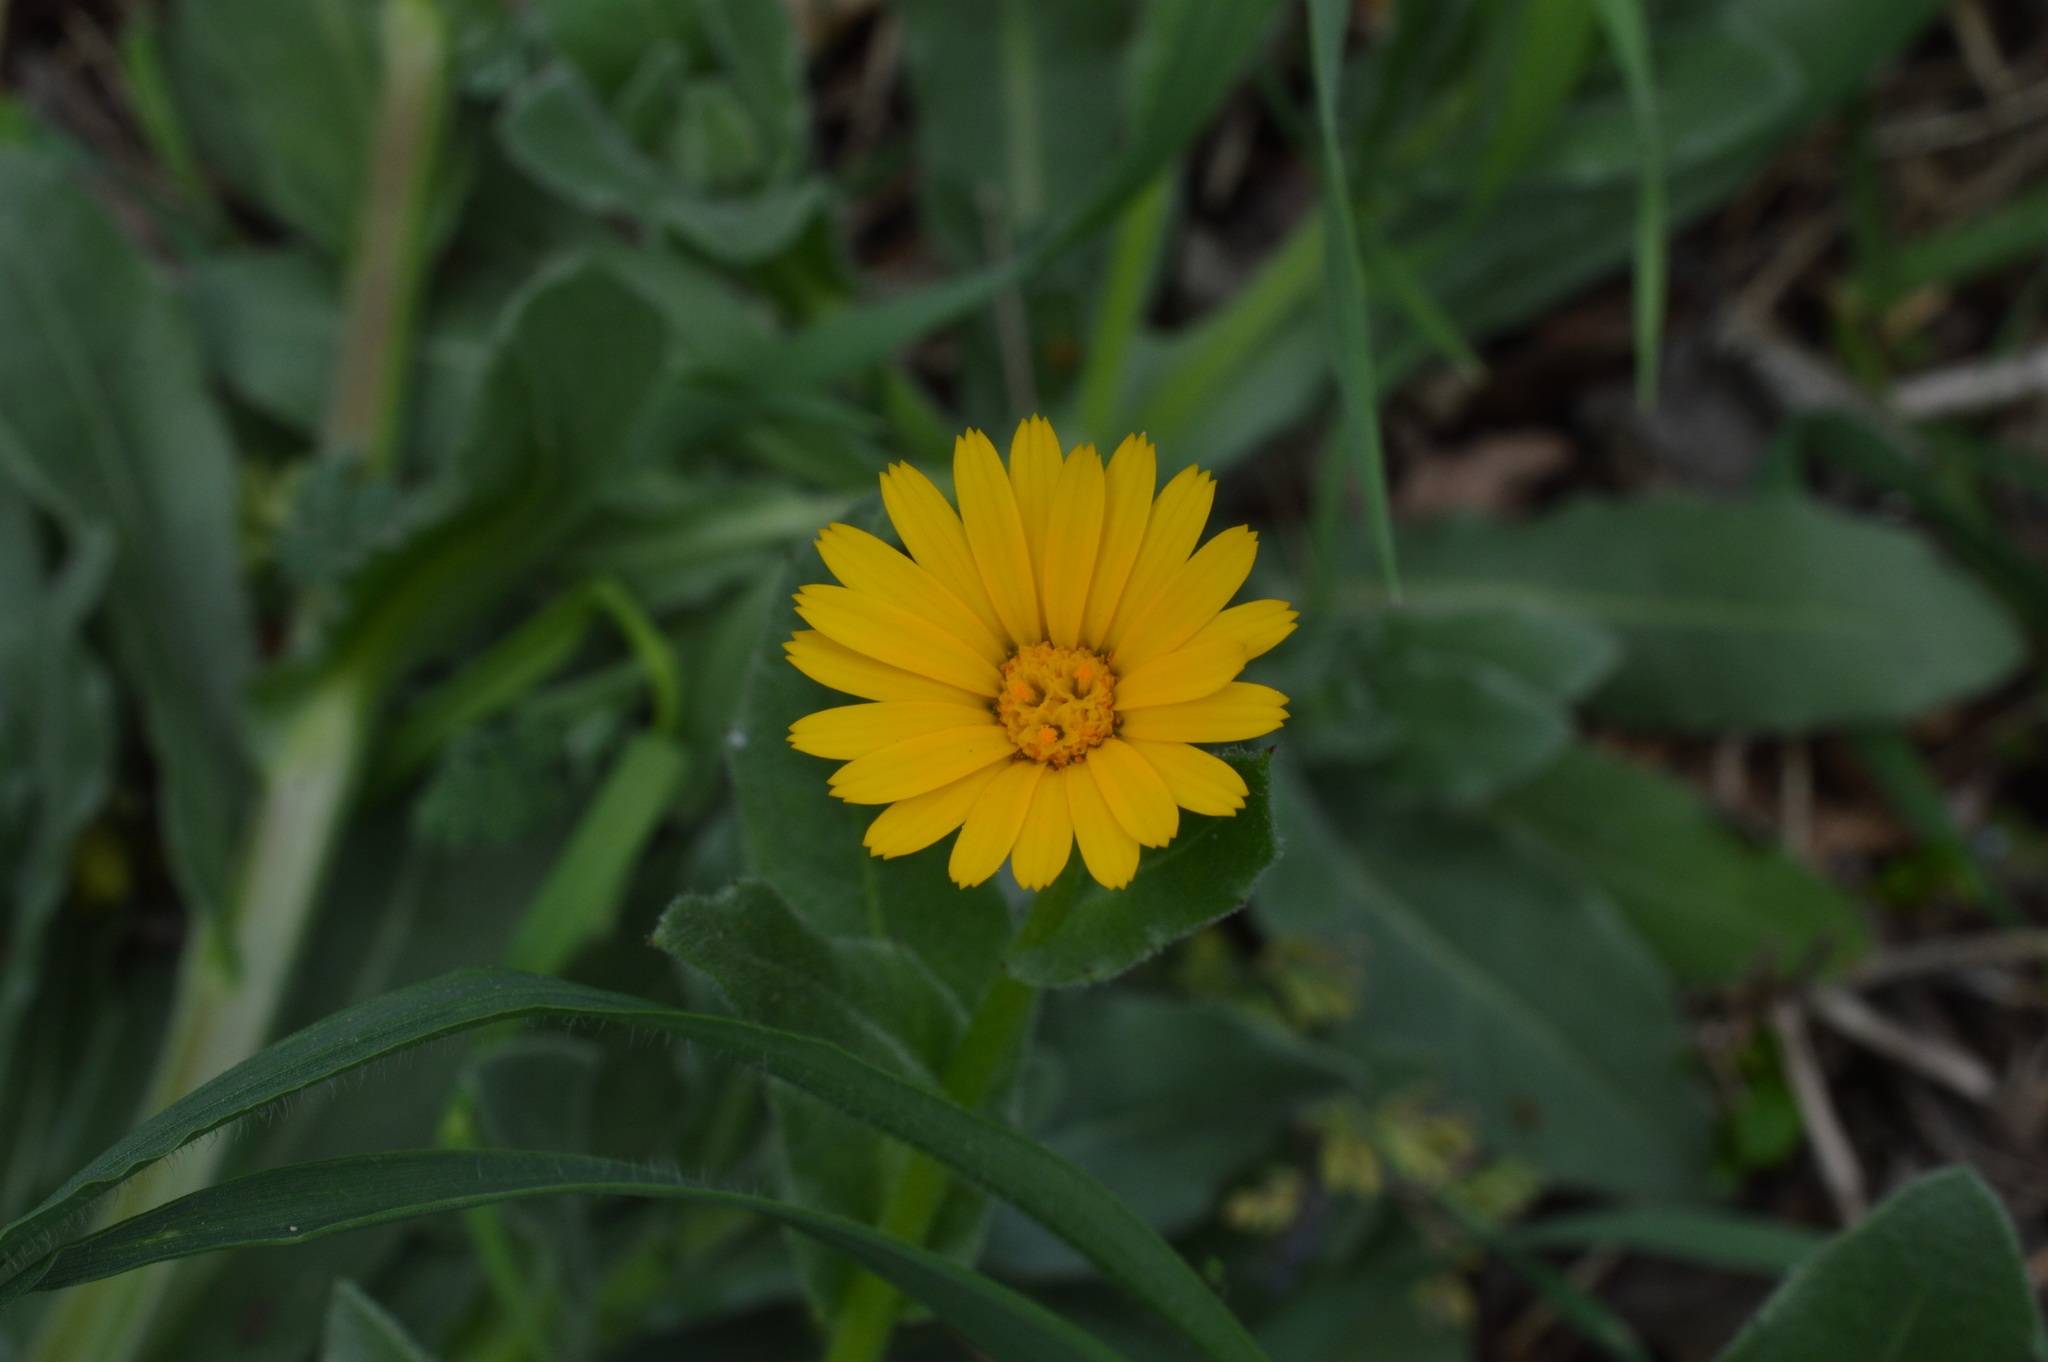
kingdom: Plantae
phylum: Tracheophyta
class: Magnoliopsida
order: Asterales
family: Asteraceae
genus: Calendula
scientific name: Calendula arvensis
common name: Field marigold
